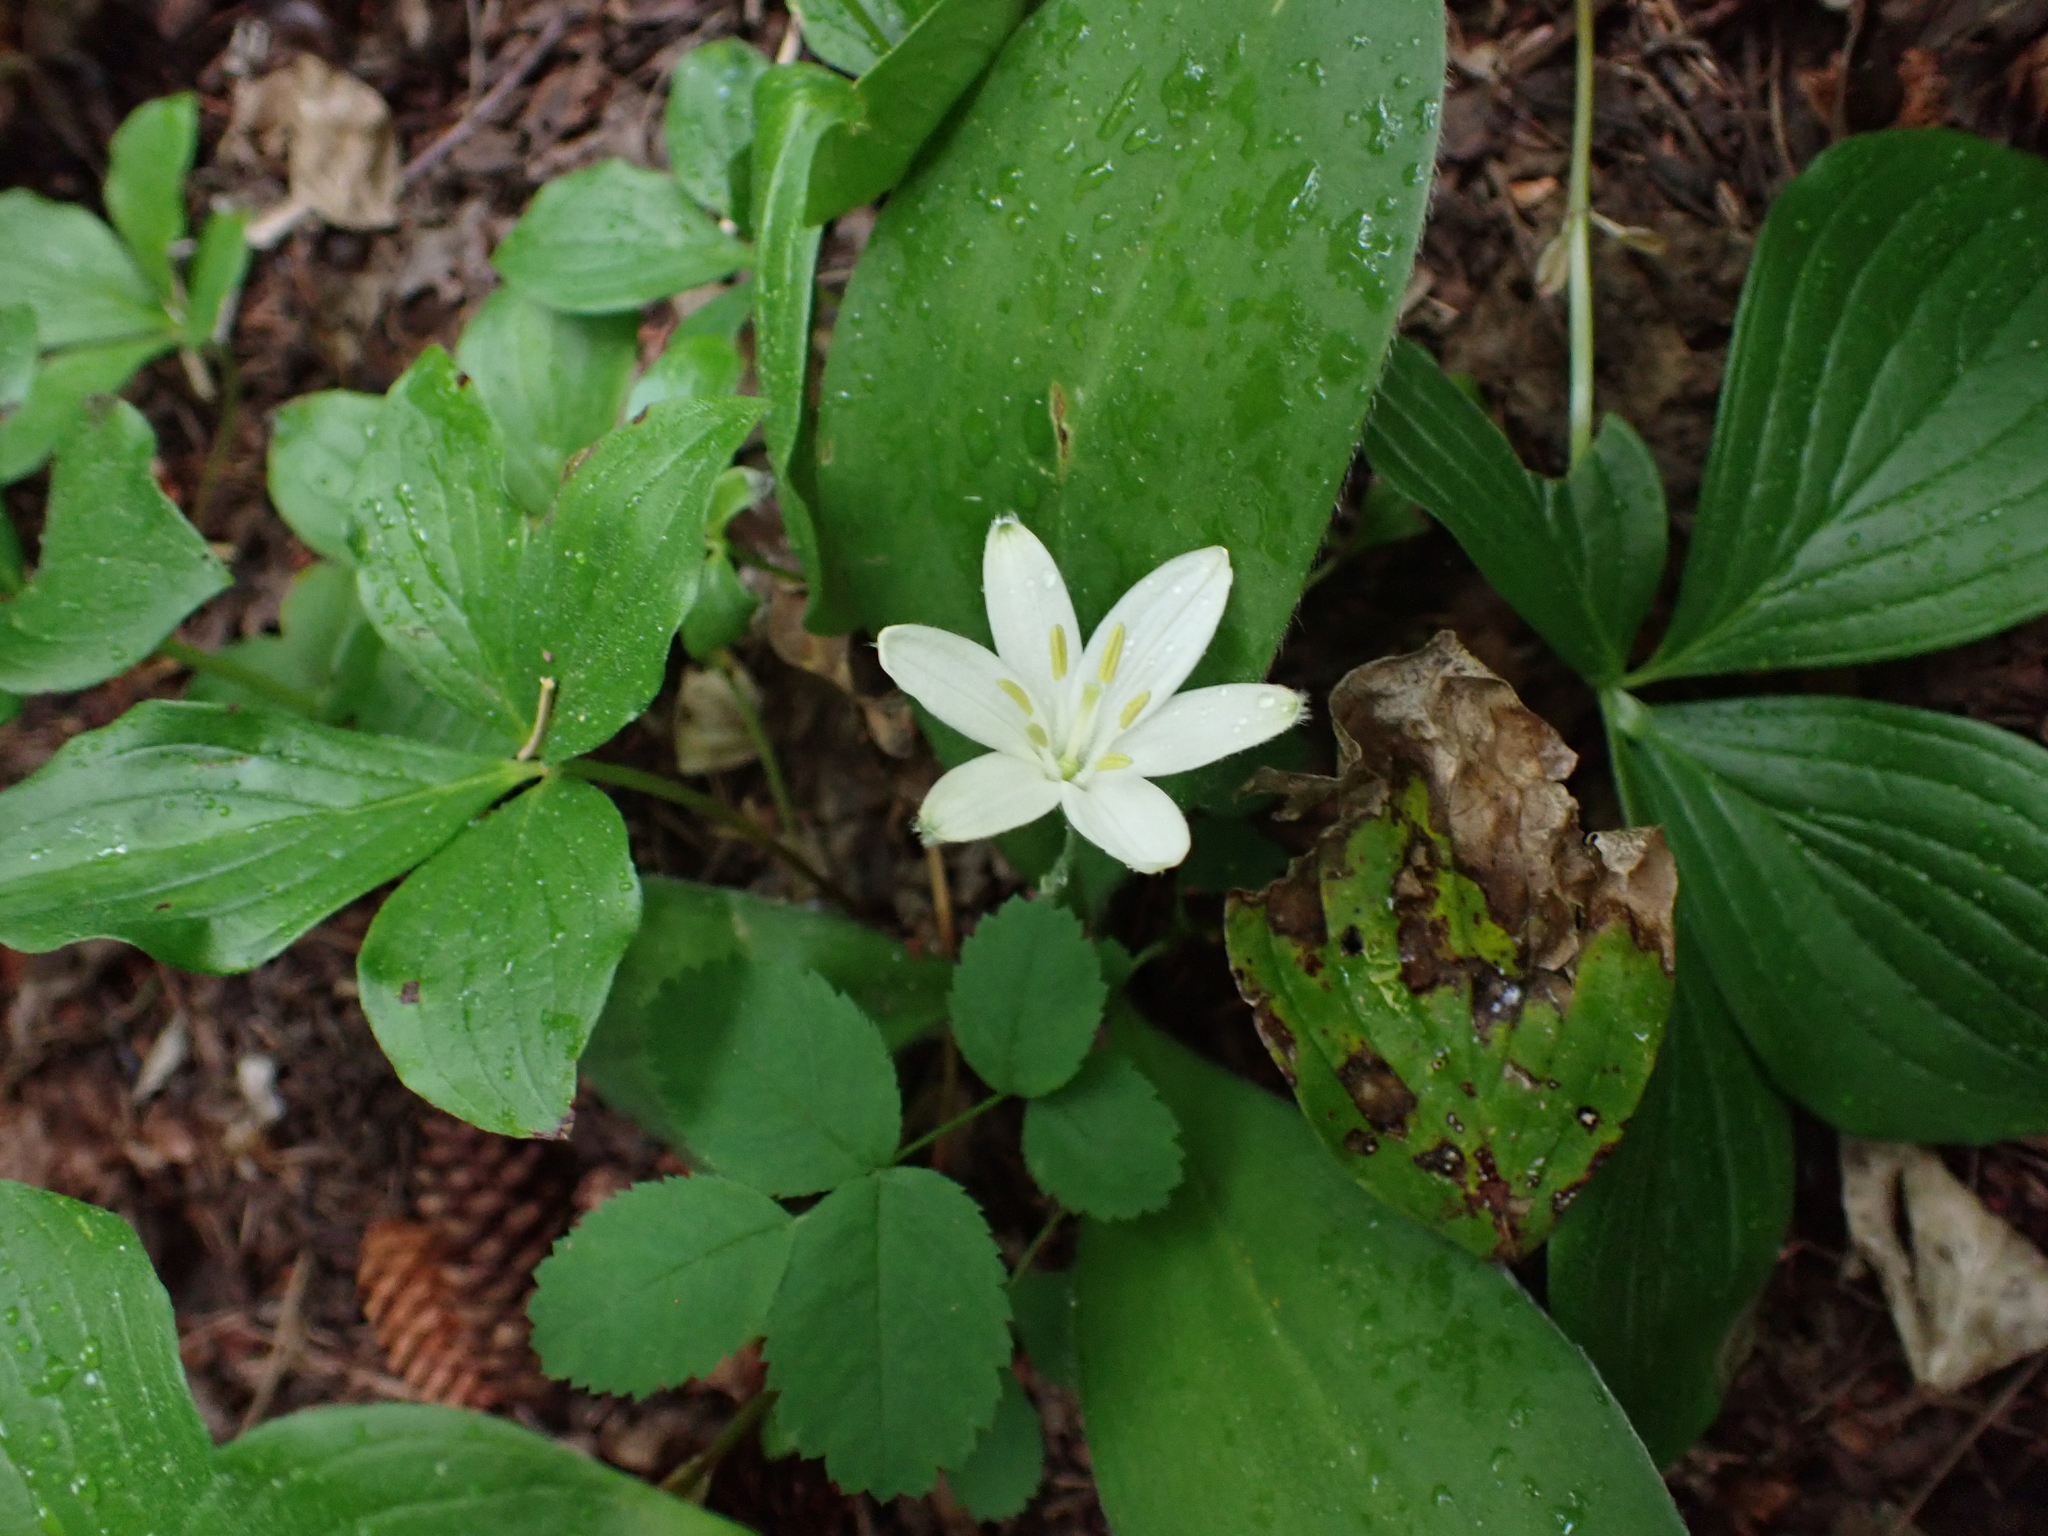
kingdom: Plantae
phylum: Tracheophyta
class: Liliopsida
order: Liliales
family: Liliaceae
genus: Clintonia
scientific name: Clintonia uniflora
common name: Queen's cup
